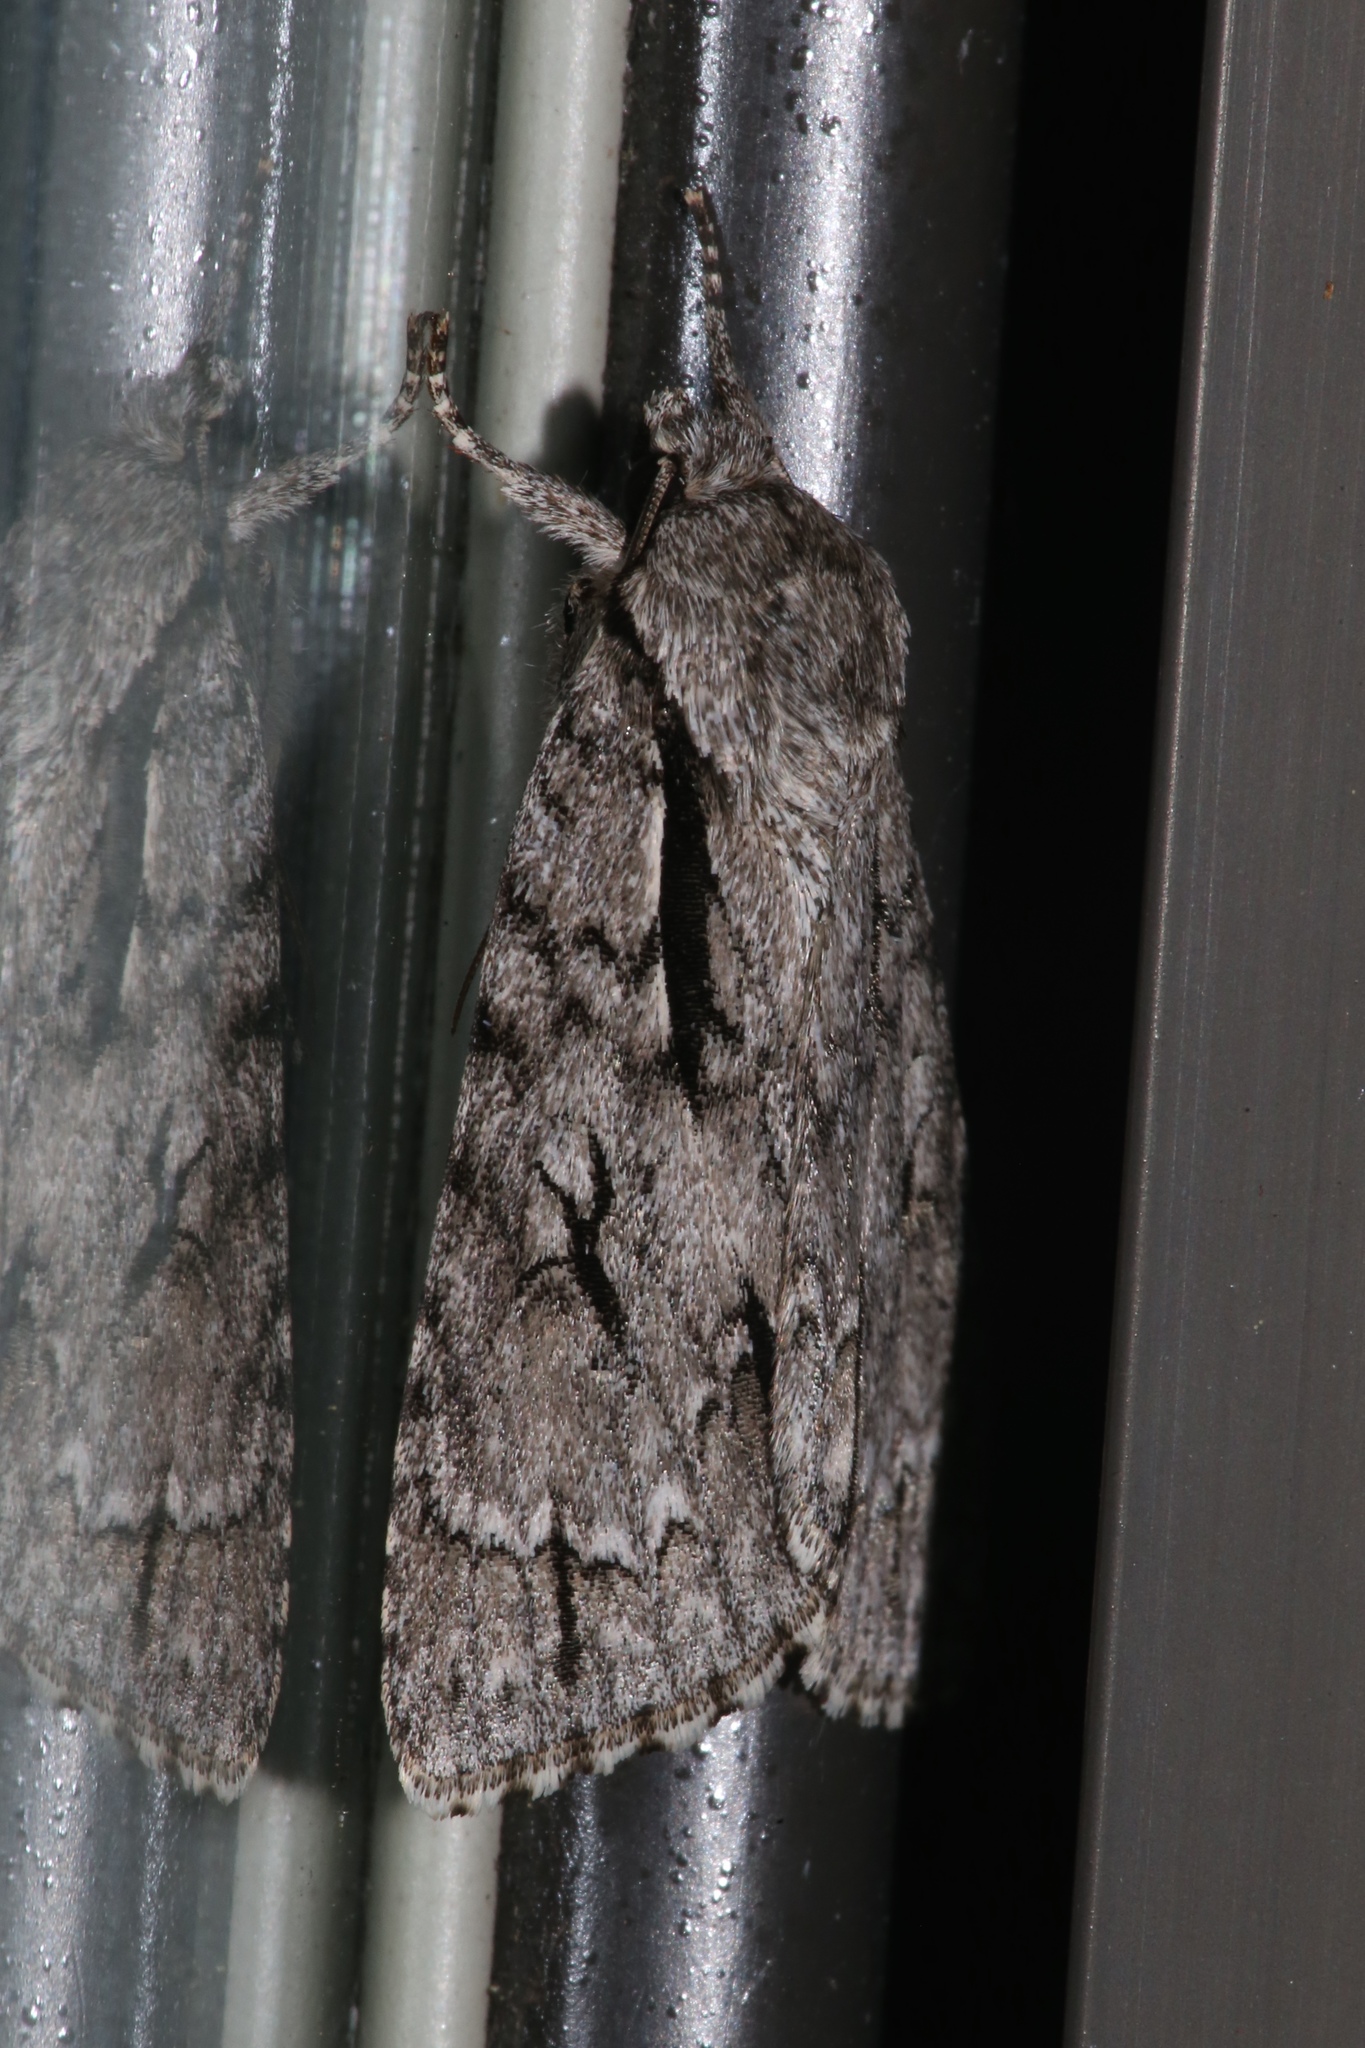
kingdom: Animalia
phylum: Arthropoda
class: Insecta
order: Lepidoptera
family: Noctuidae
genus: Acronicta
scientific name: Acronicta hasta
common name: Cherry dagger
